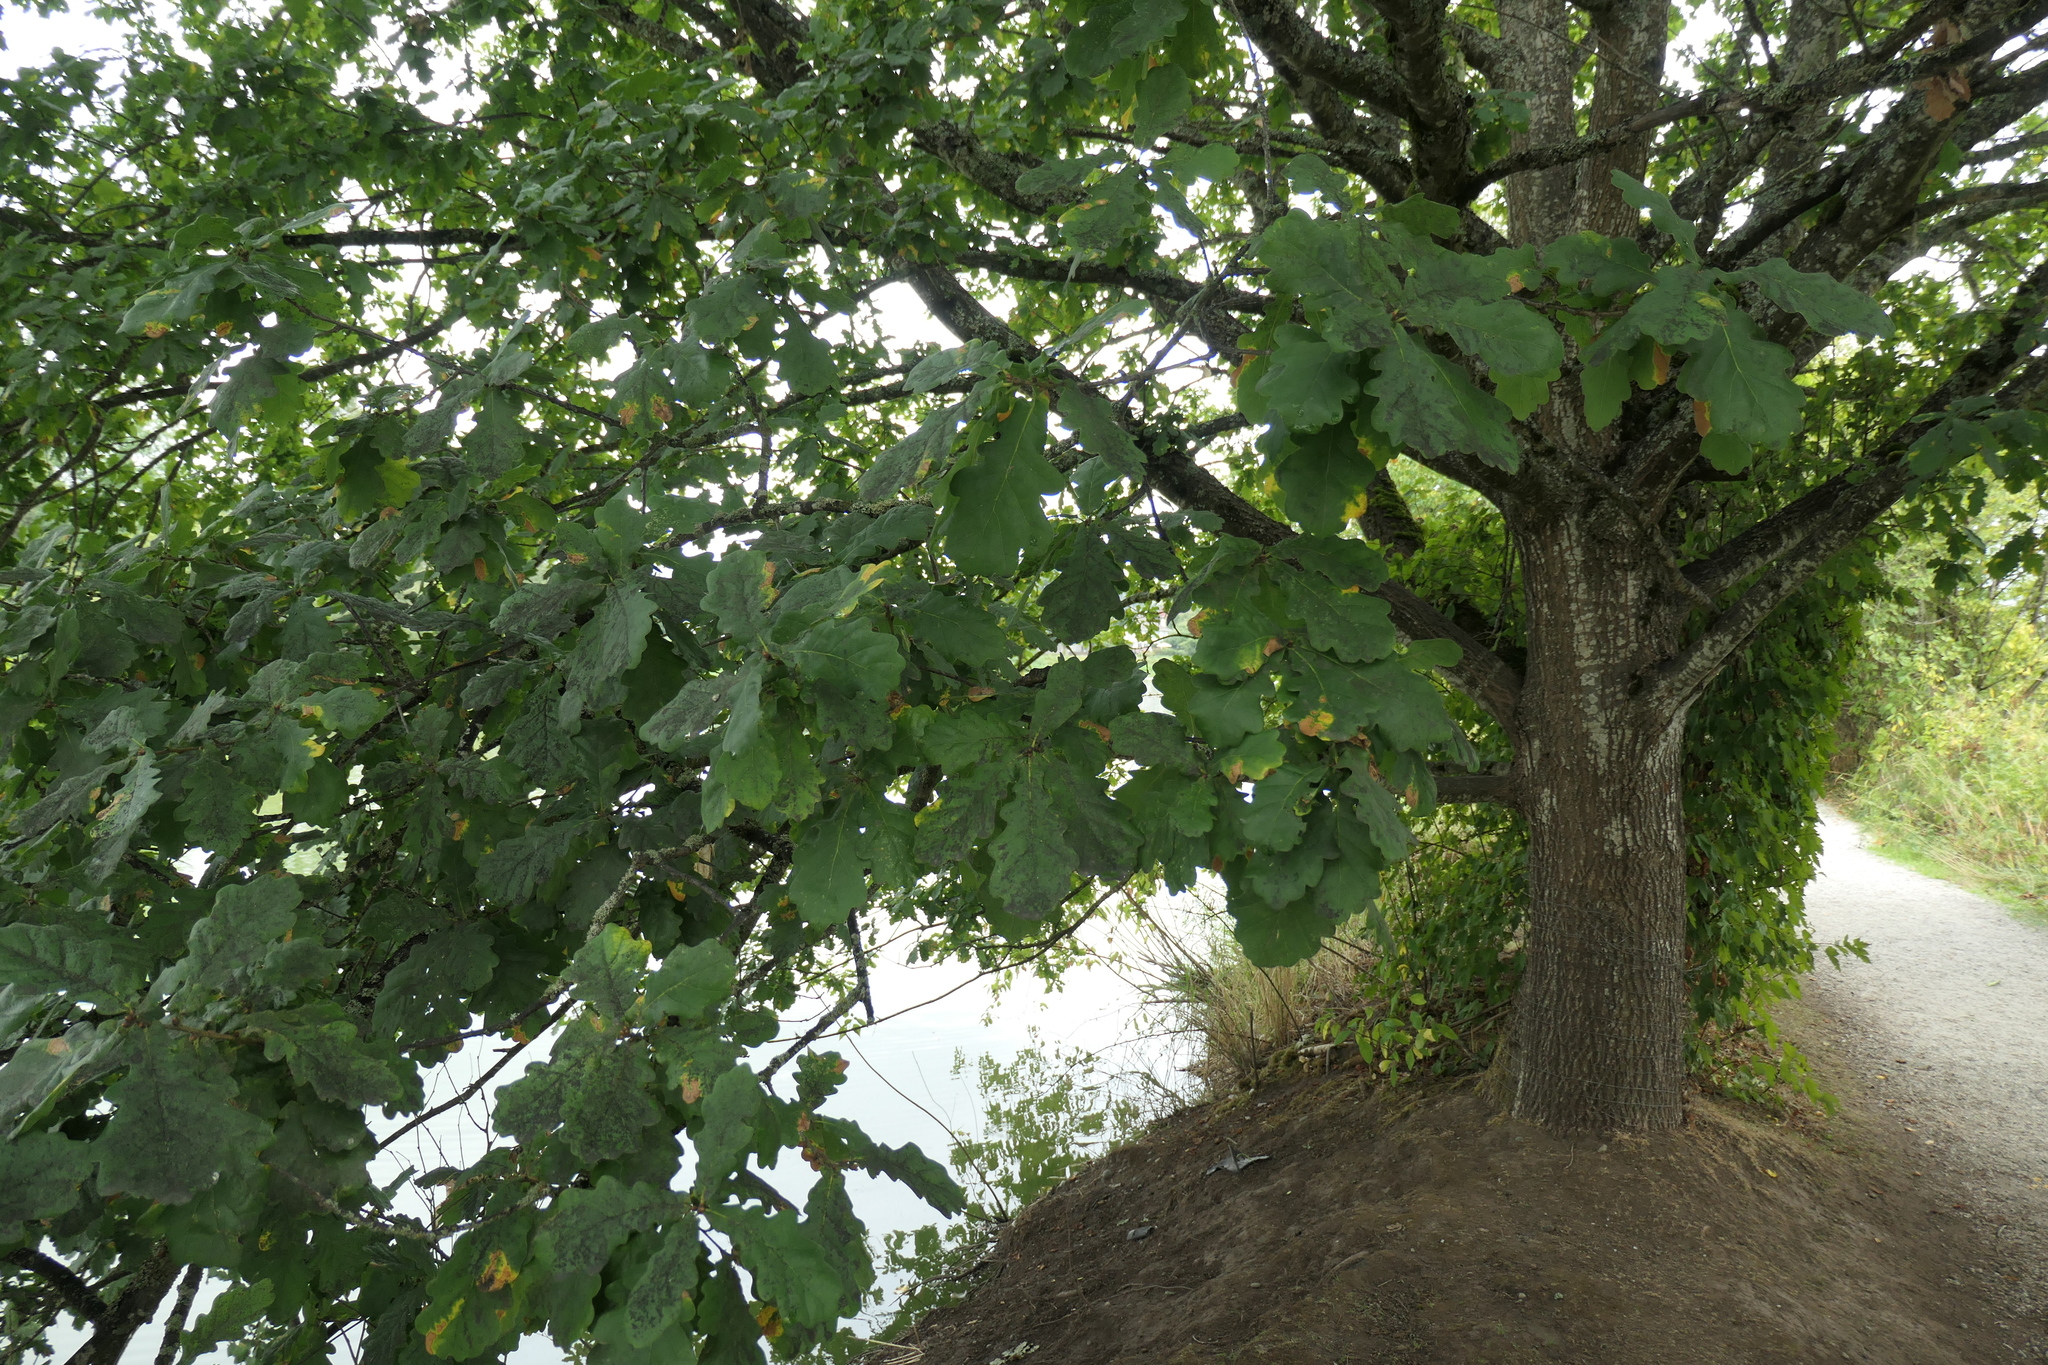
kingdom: Plantae
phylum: Tracheophyta
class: Magnoliopsida
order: Fagales
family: Fagaceae
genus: Quercus
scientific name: Quercus robur
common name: Pedunculate oak
